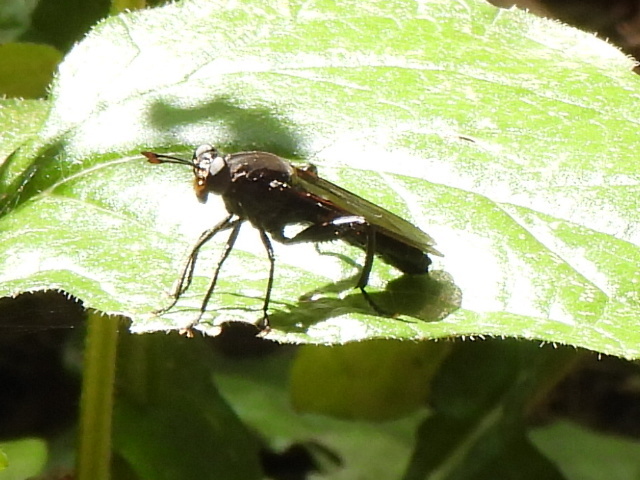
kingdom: Animalia
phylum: Arthropoda
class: Insecta
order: Diptera
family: Mydidae
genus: Mydas
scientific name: Mydas clavatus
